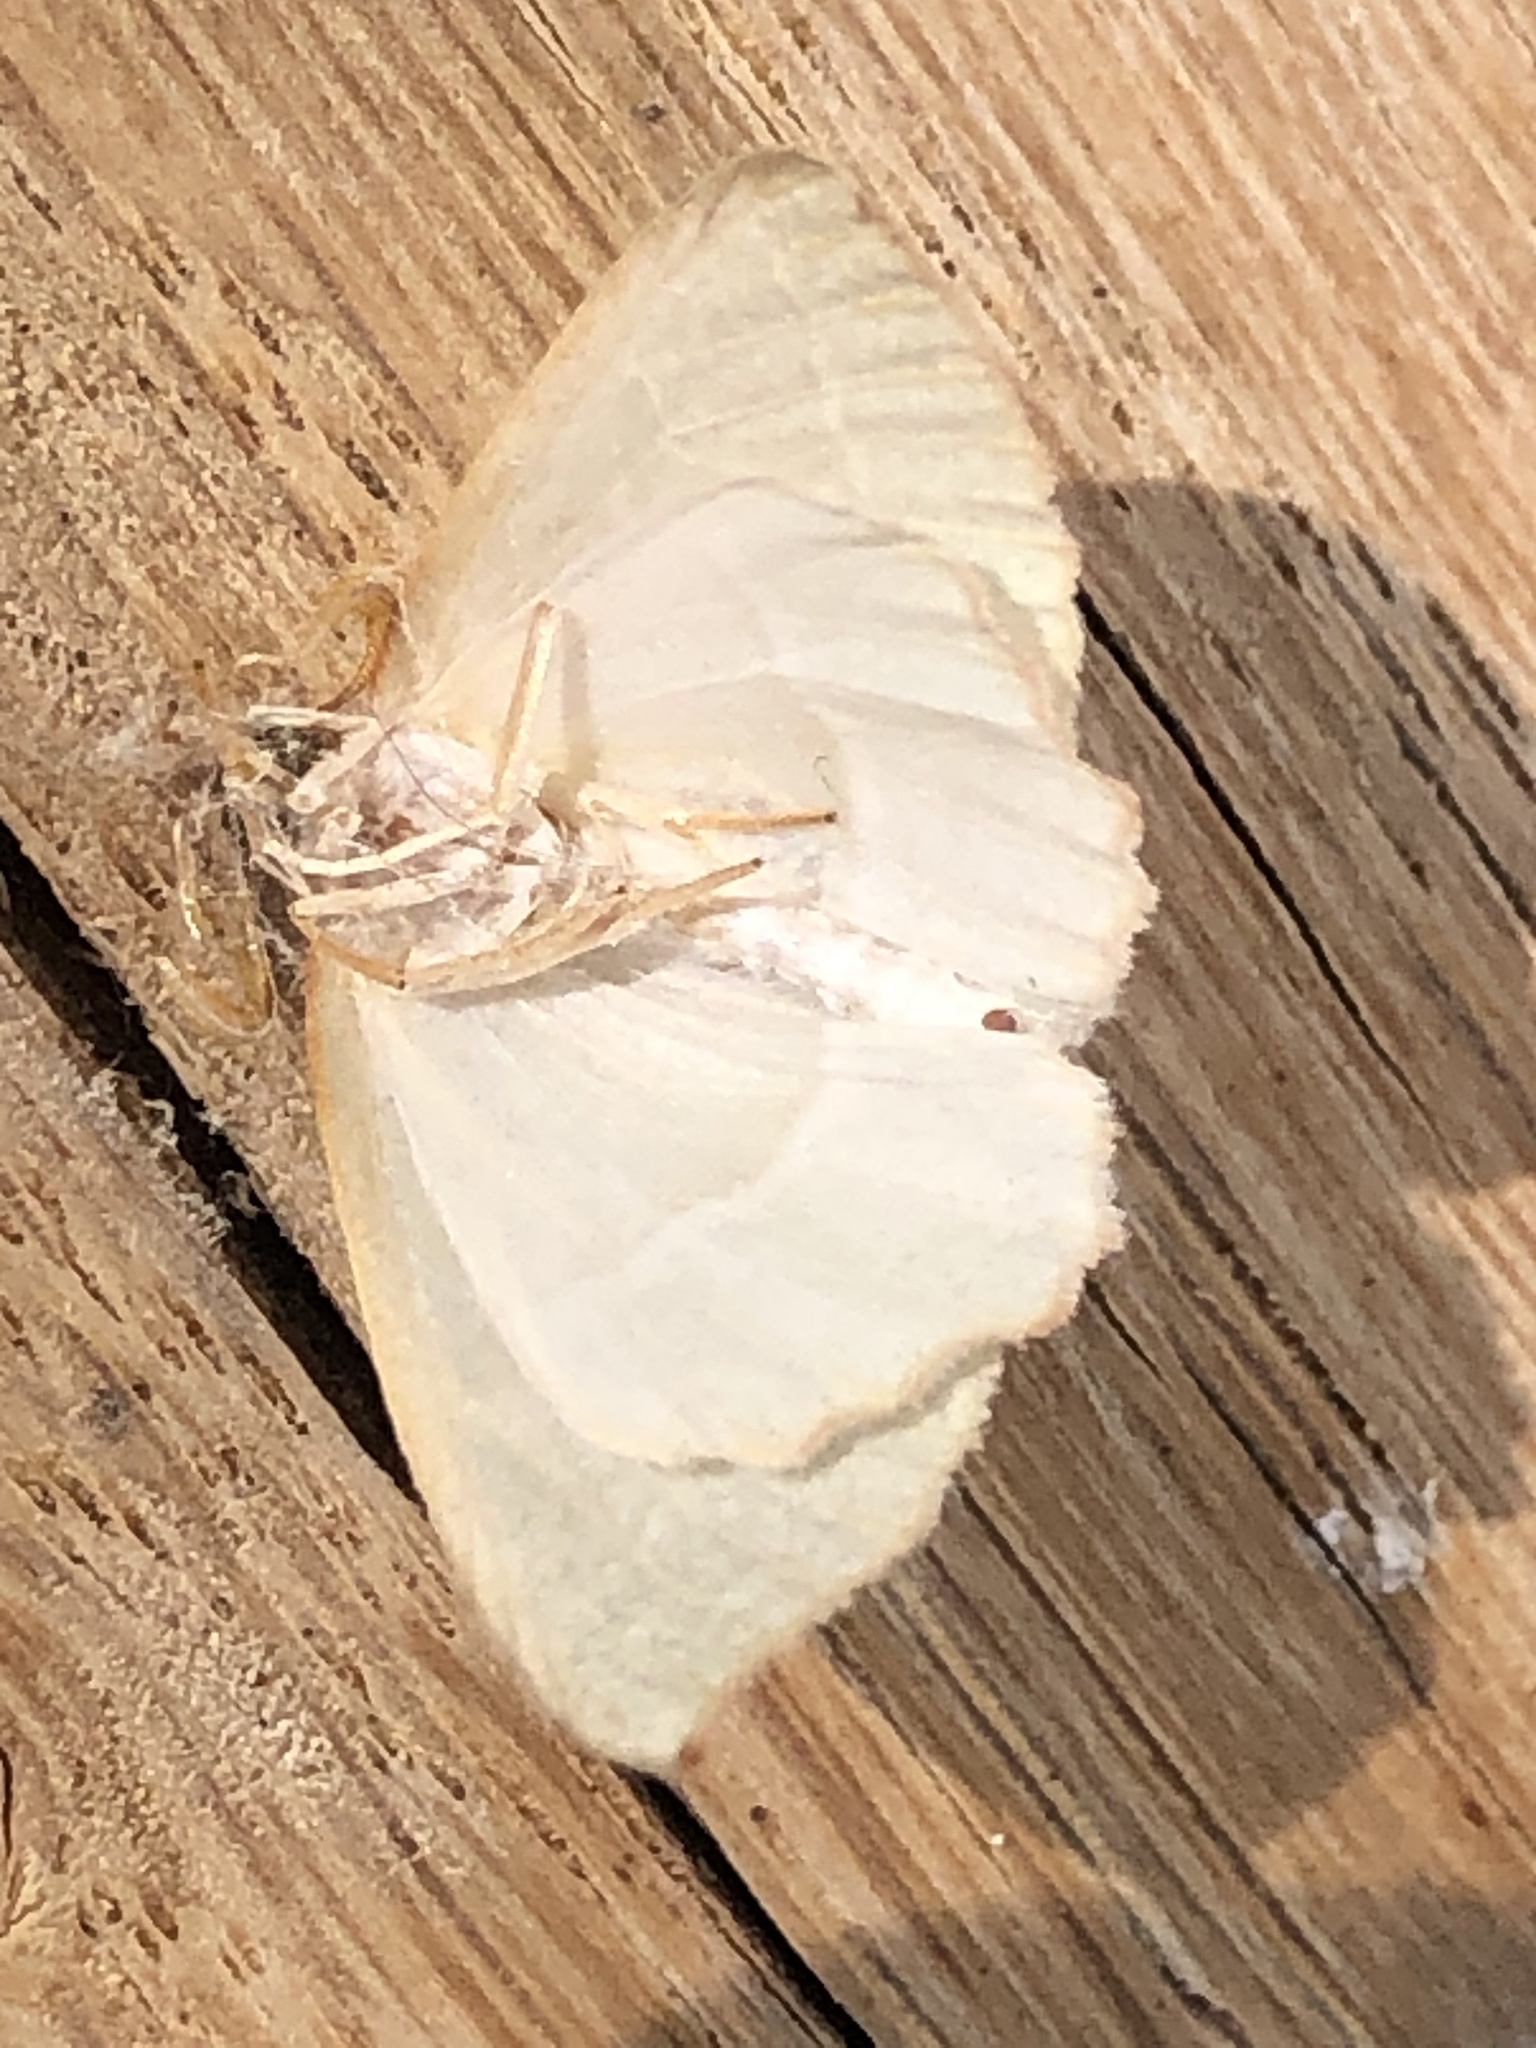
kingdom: Animalia
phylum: Arthropoda
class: Insecta
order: Lepidoptera
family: Geometridae
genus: Campaea
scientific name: Campaea margaritaria
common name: Light emerald
